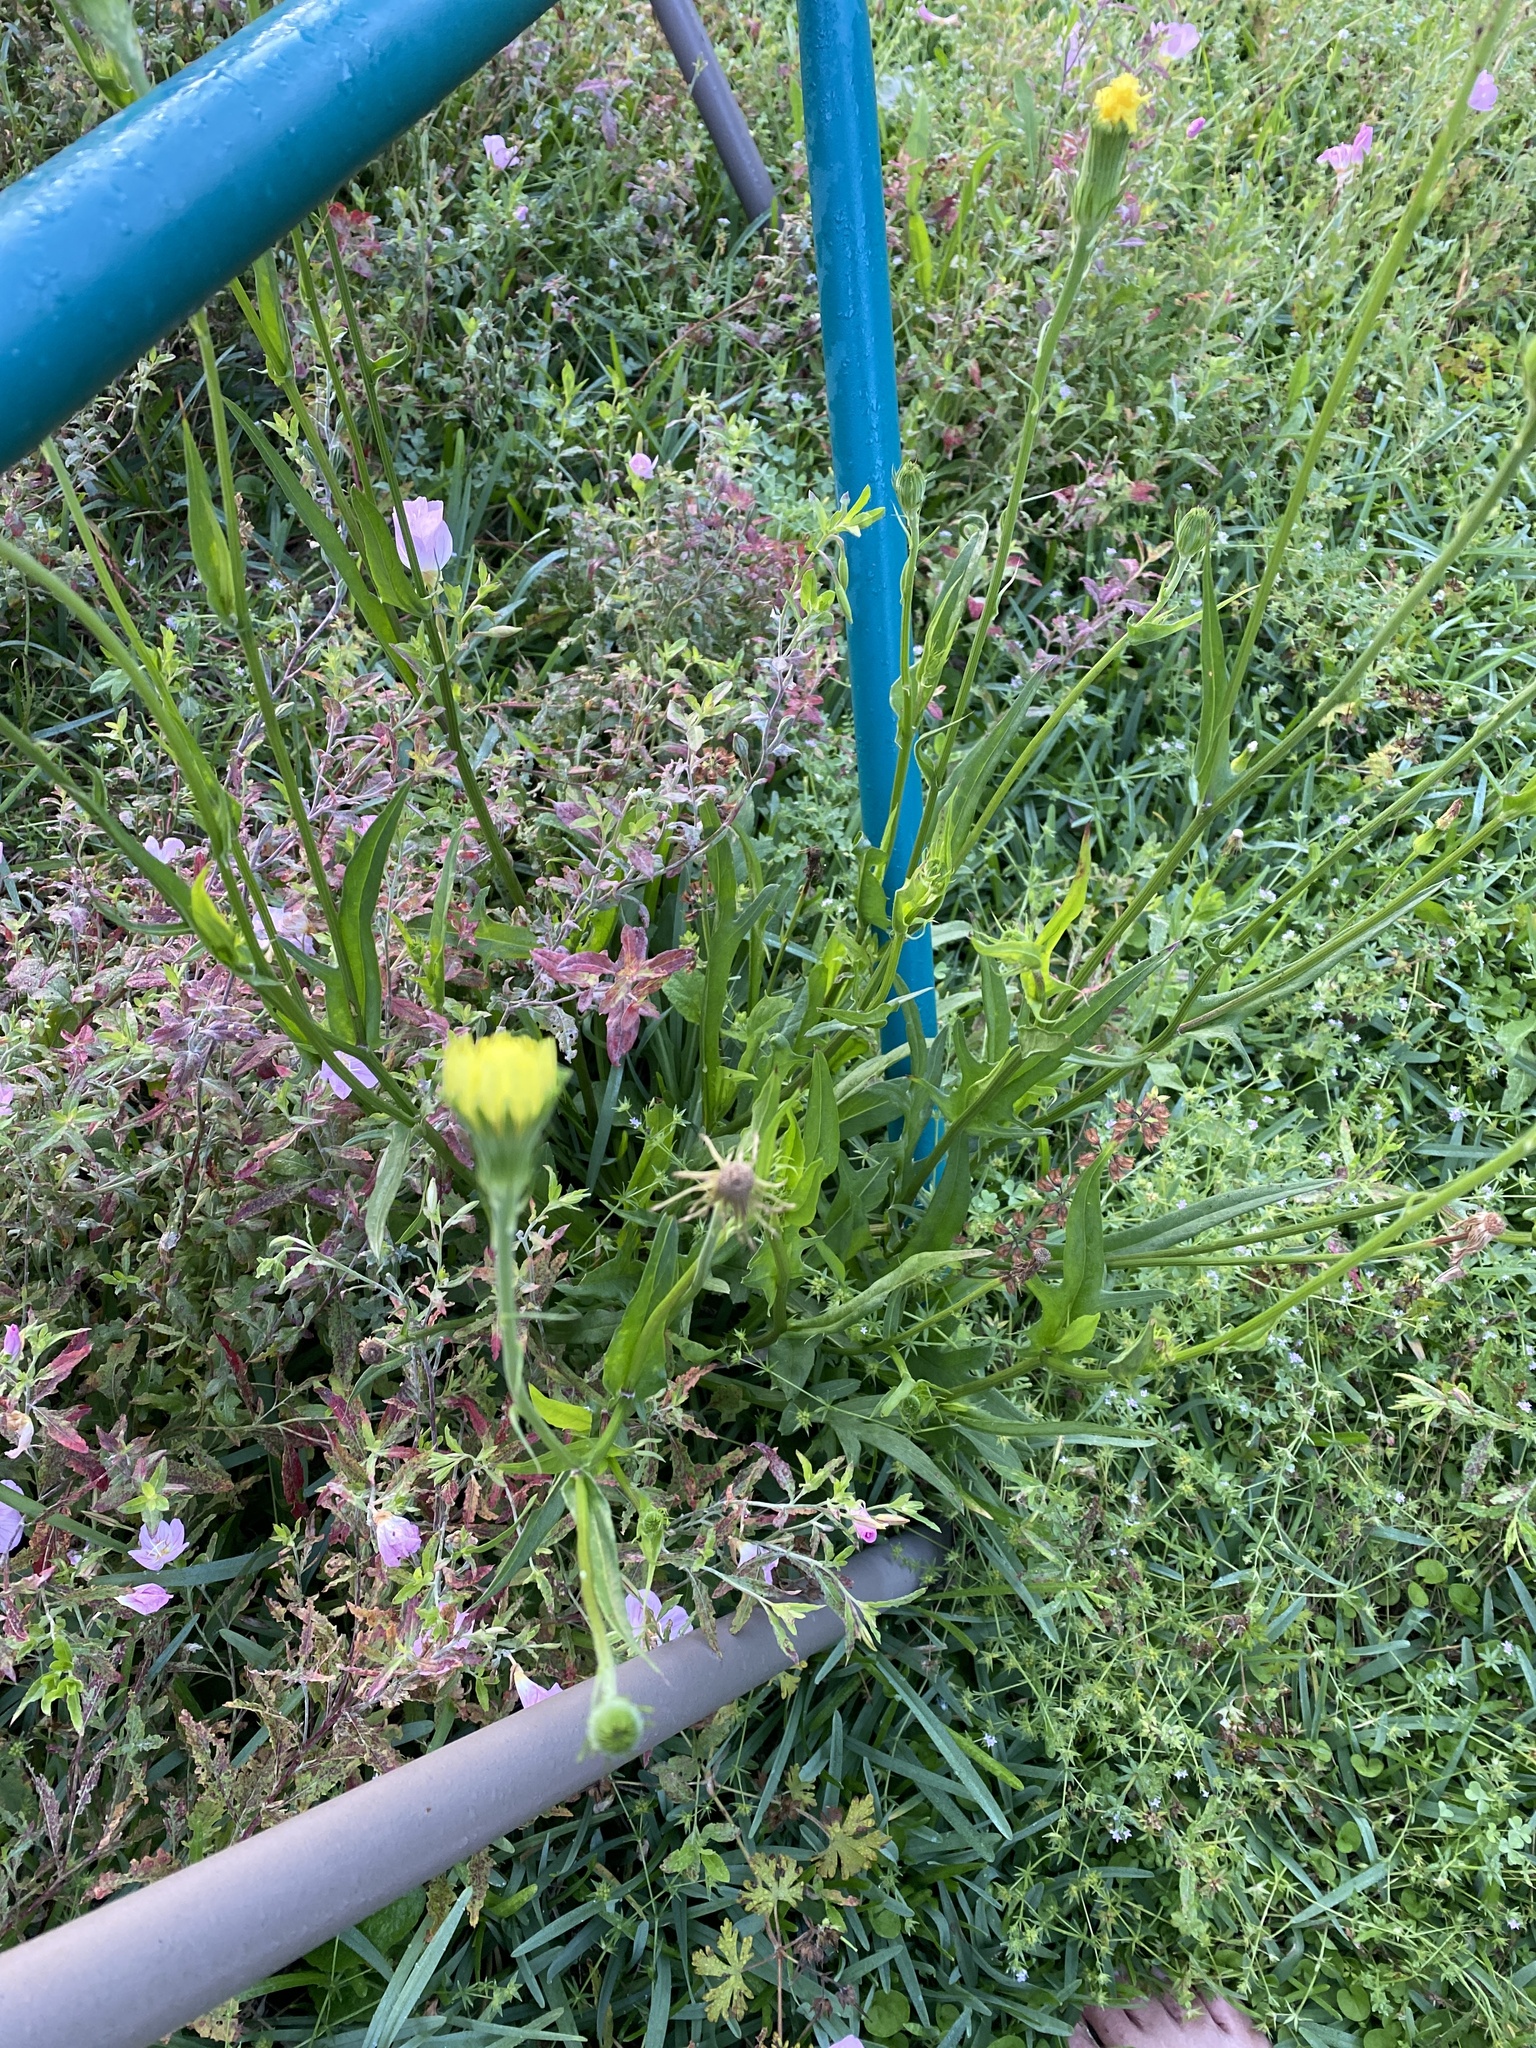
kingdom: Plantae
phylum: Tracheophyta
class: Magnoliopsida
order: Asterales
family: Asteraceae
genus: Pyrrhopappus
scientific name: Pyrrhopappus carolinianus
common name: Carolina desert-chicory
